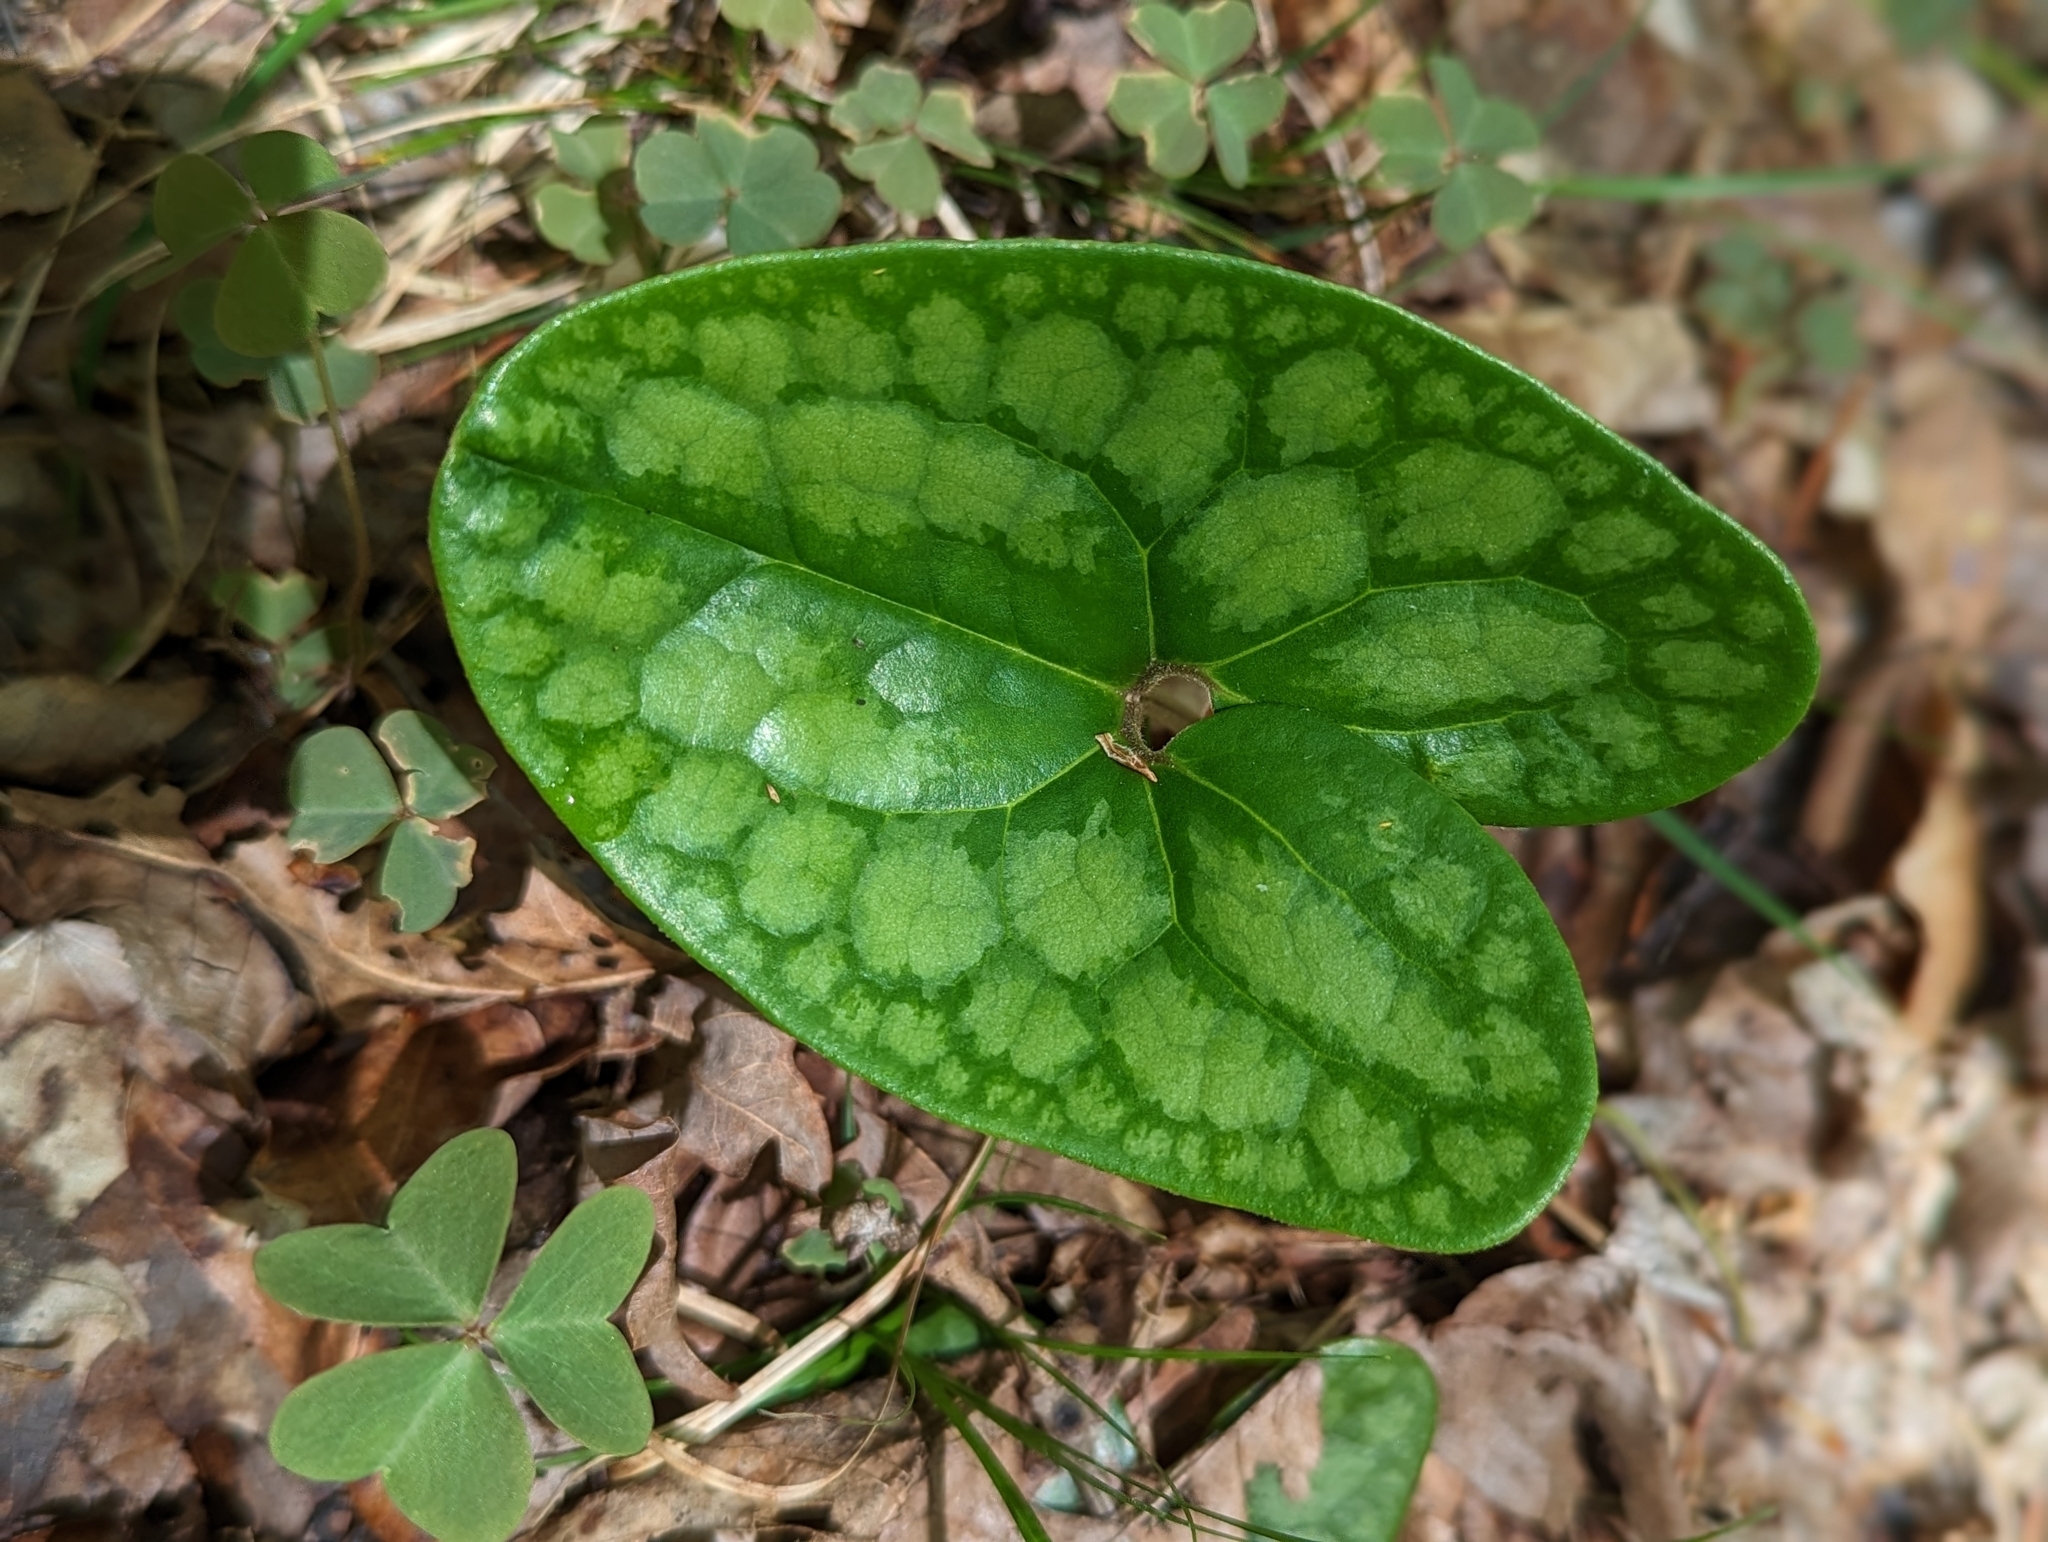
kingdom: Plantae
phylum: Tracheophyta
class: Magnoliopsida
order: Piperales
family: Aristolochiaceae
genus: Hexastylis
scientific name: Hexastylis arifolia
